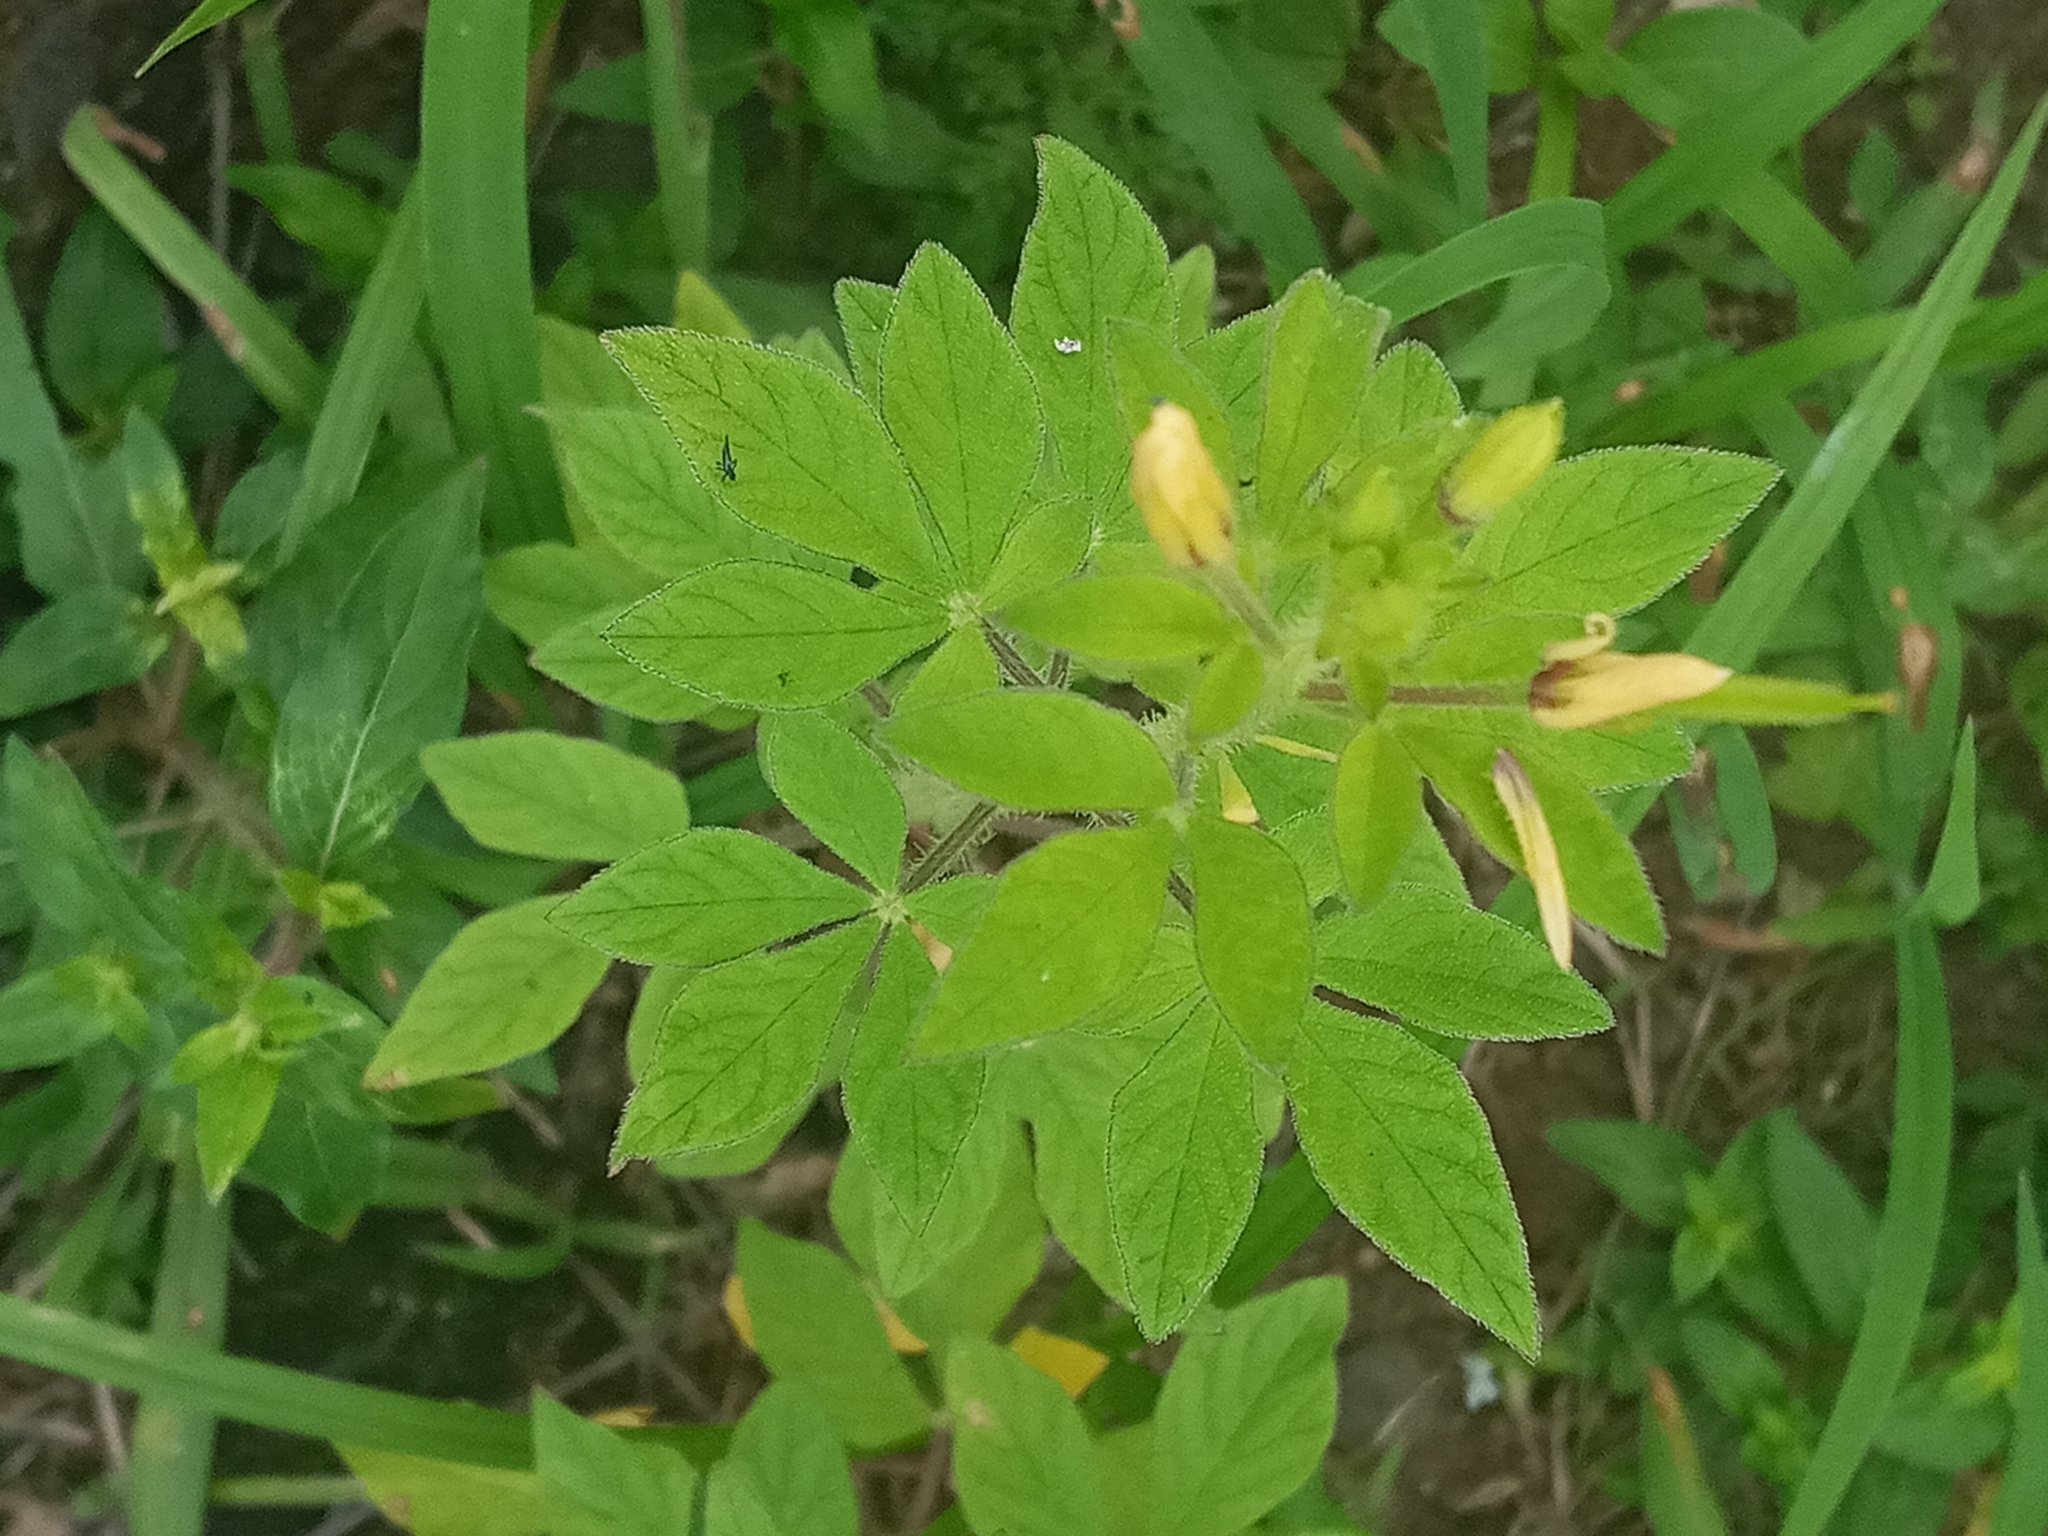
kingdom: Plantae
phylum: Tracheophyta
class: Magnoliopsida
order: Brassicales
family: Cleomaceae
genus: Arivela
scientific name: Arivela viscosa
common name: Asian spiderflower
